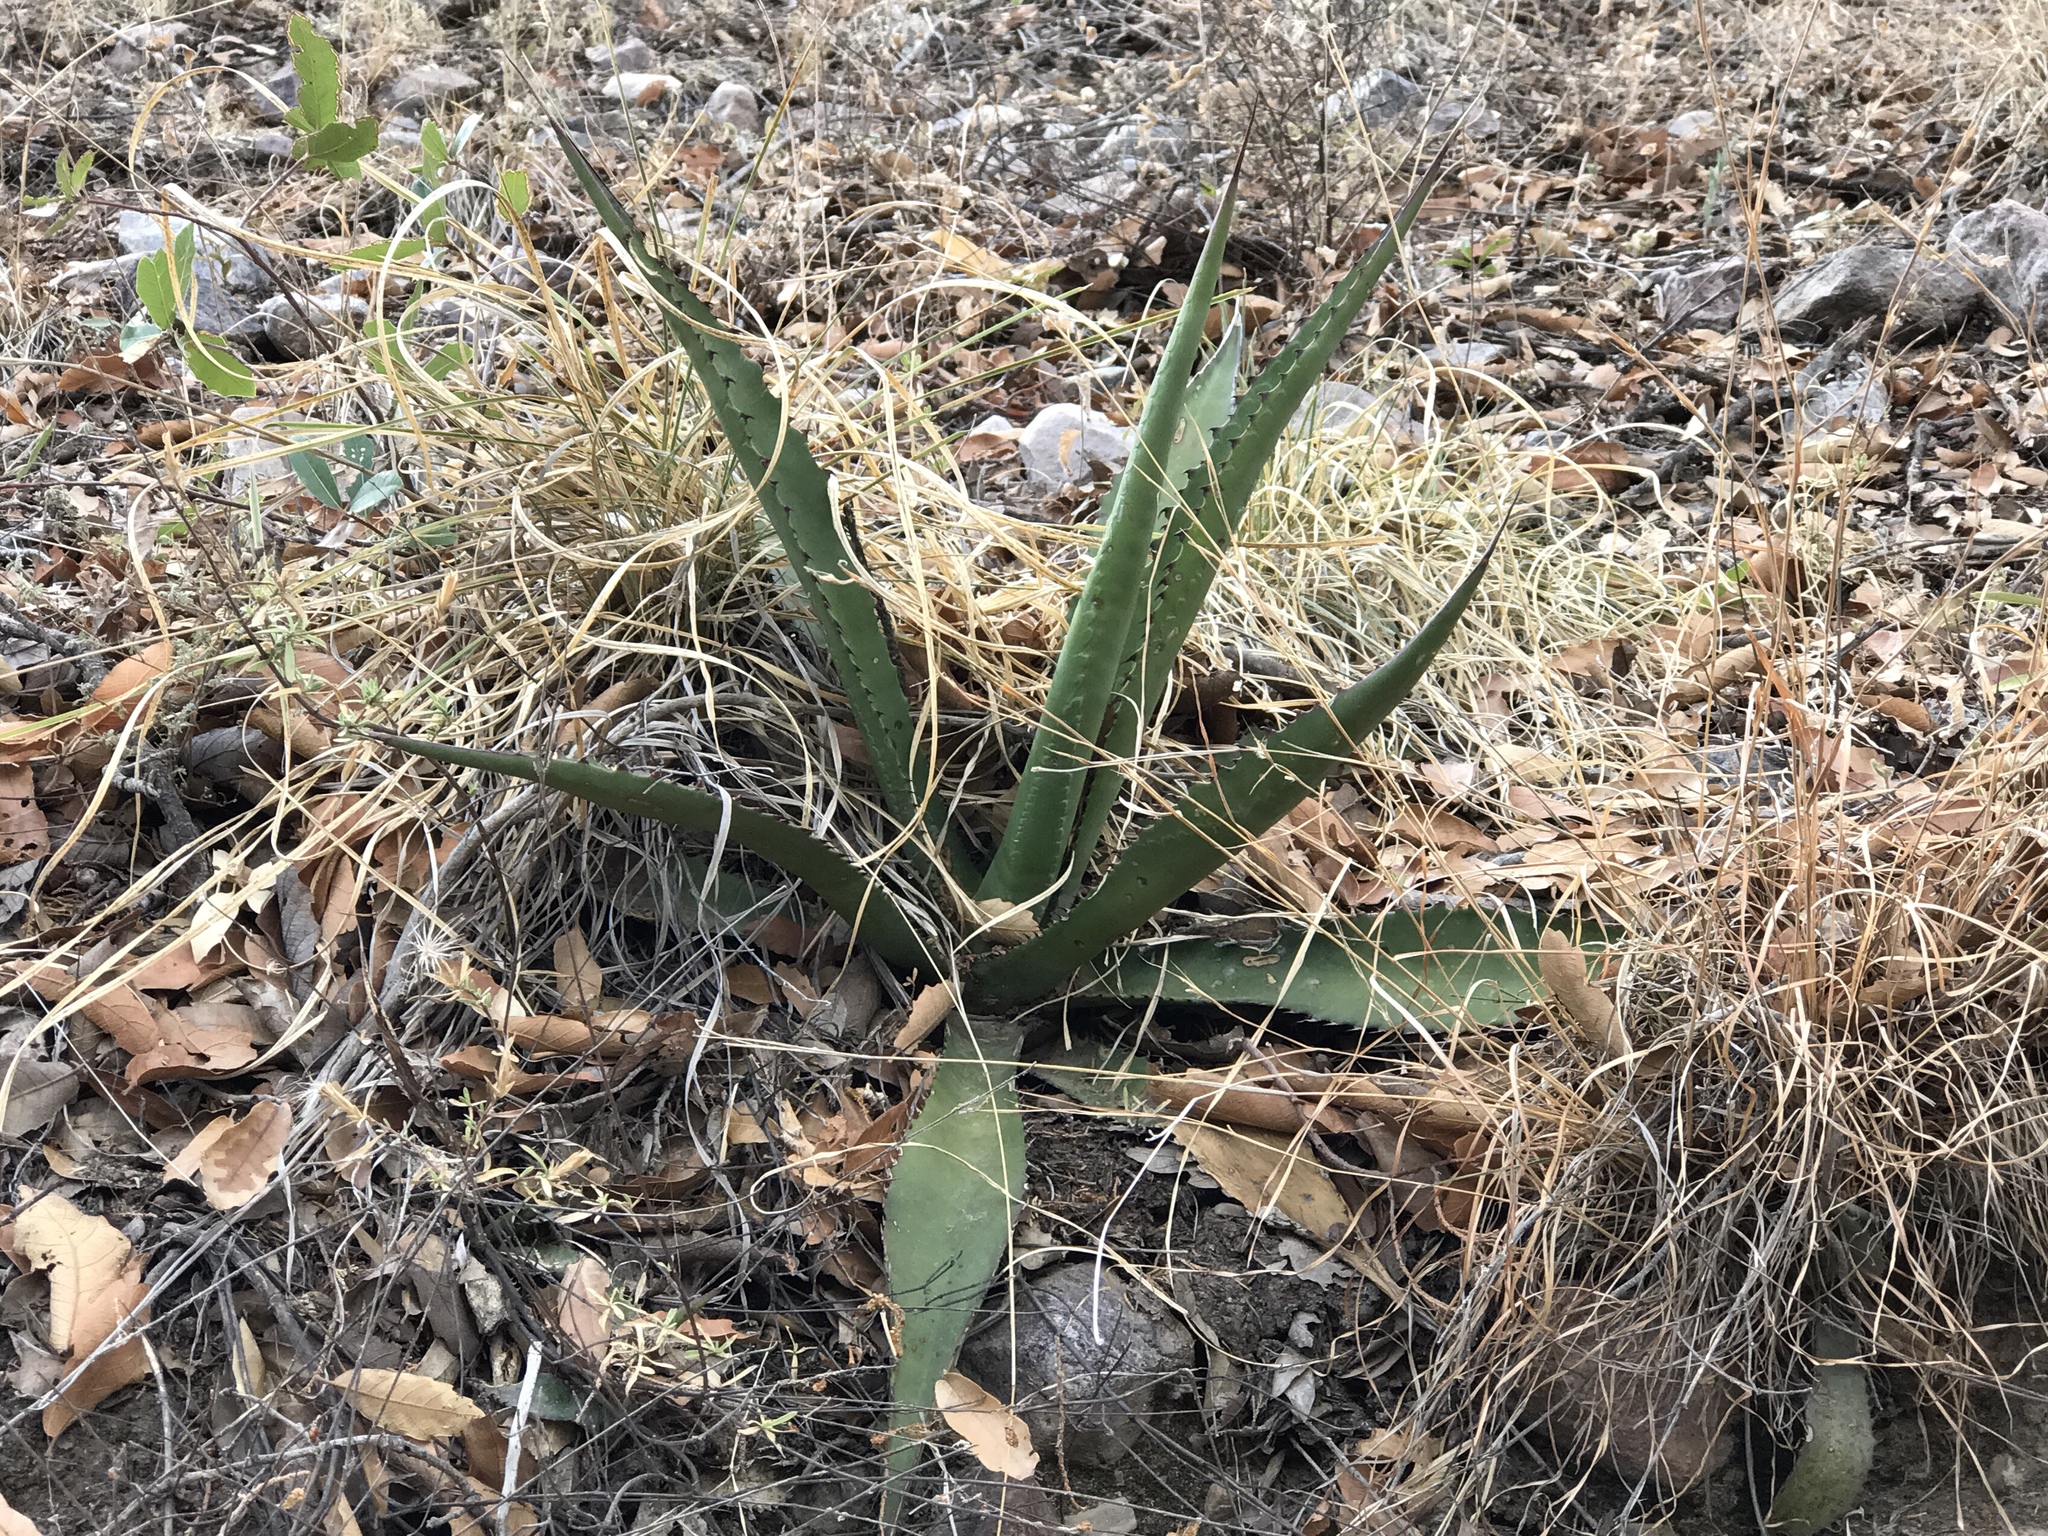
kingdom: Plantae
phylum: Tracheophyta
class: Liliopsida
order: Asparagales
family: Asparagaceae
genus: Agave
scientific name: Agave palmeri
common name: Palmer agave
